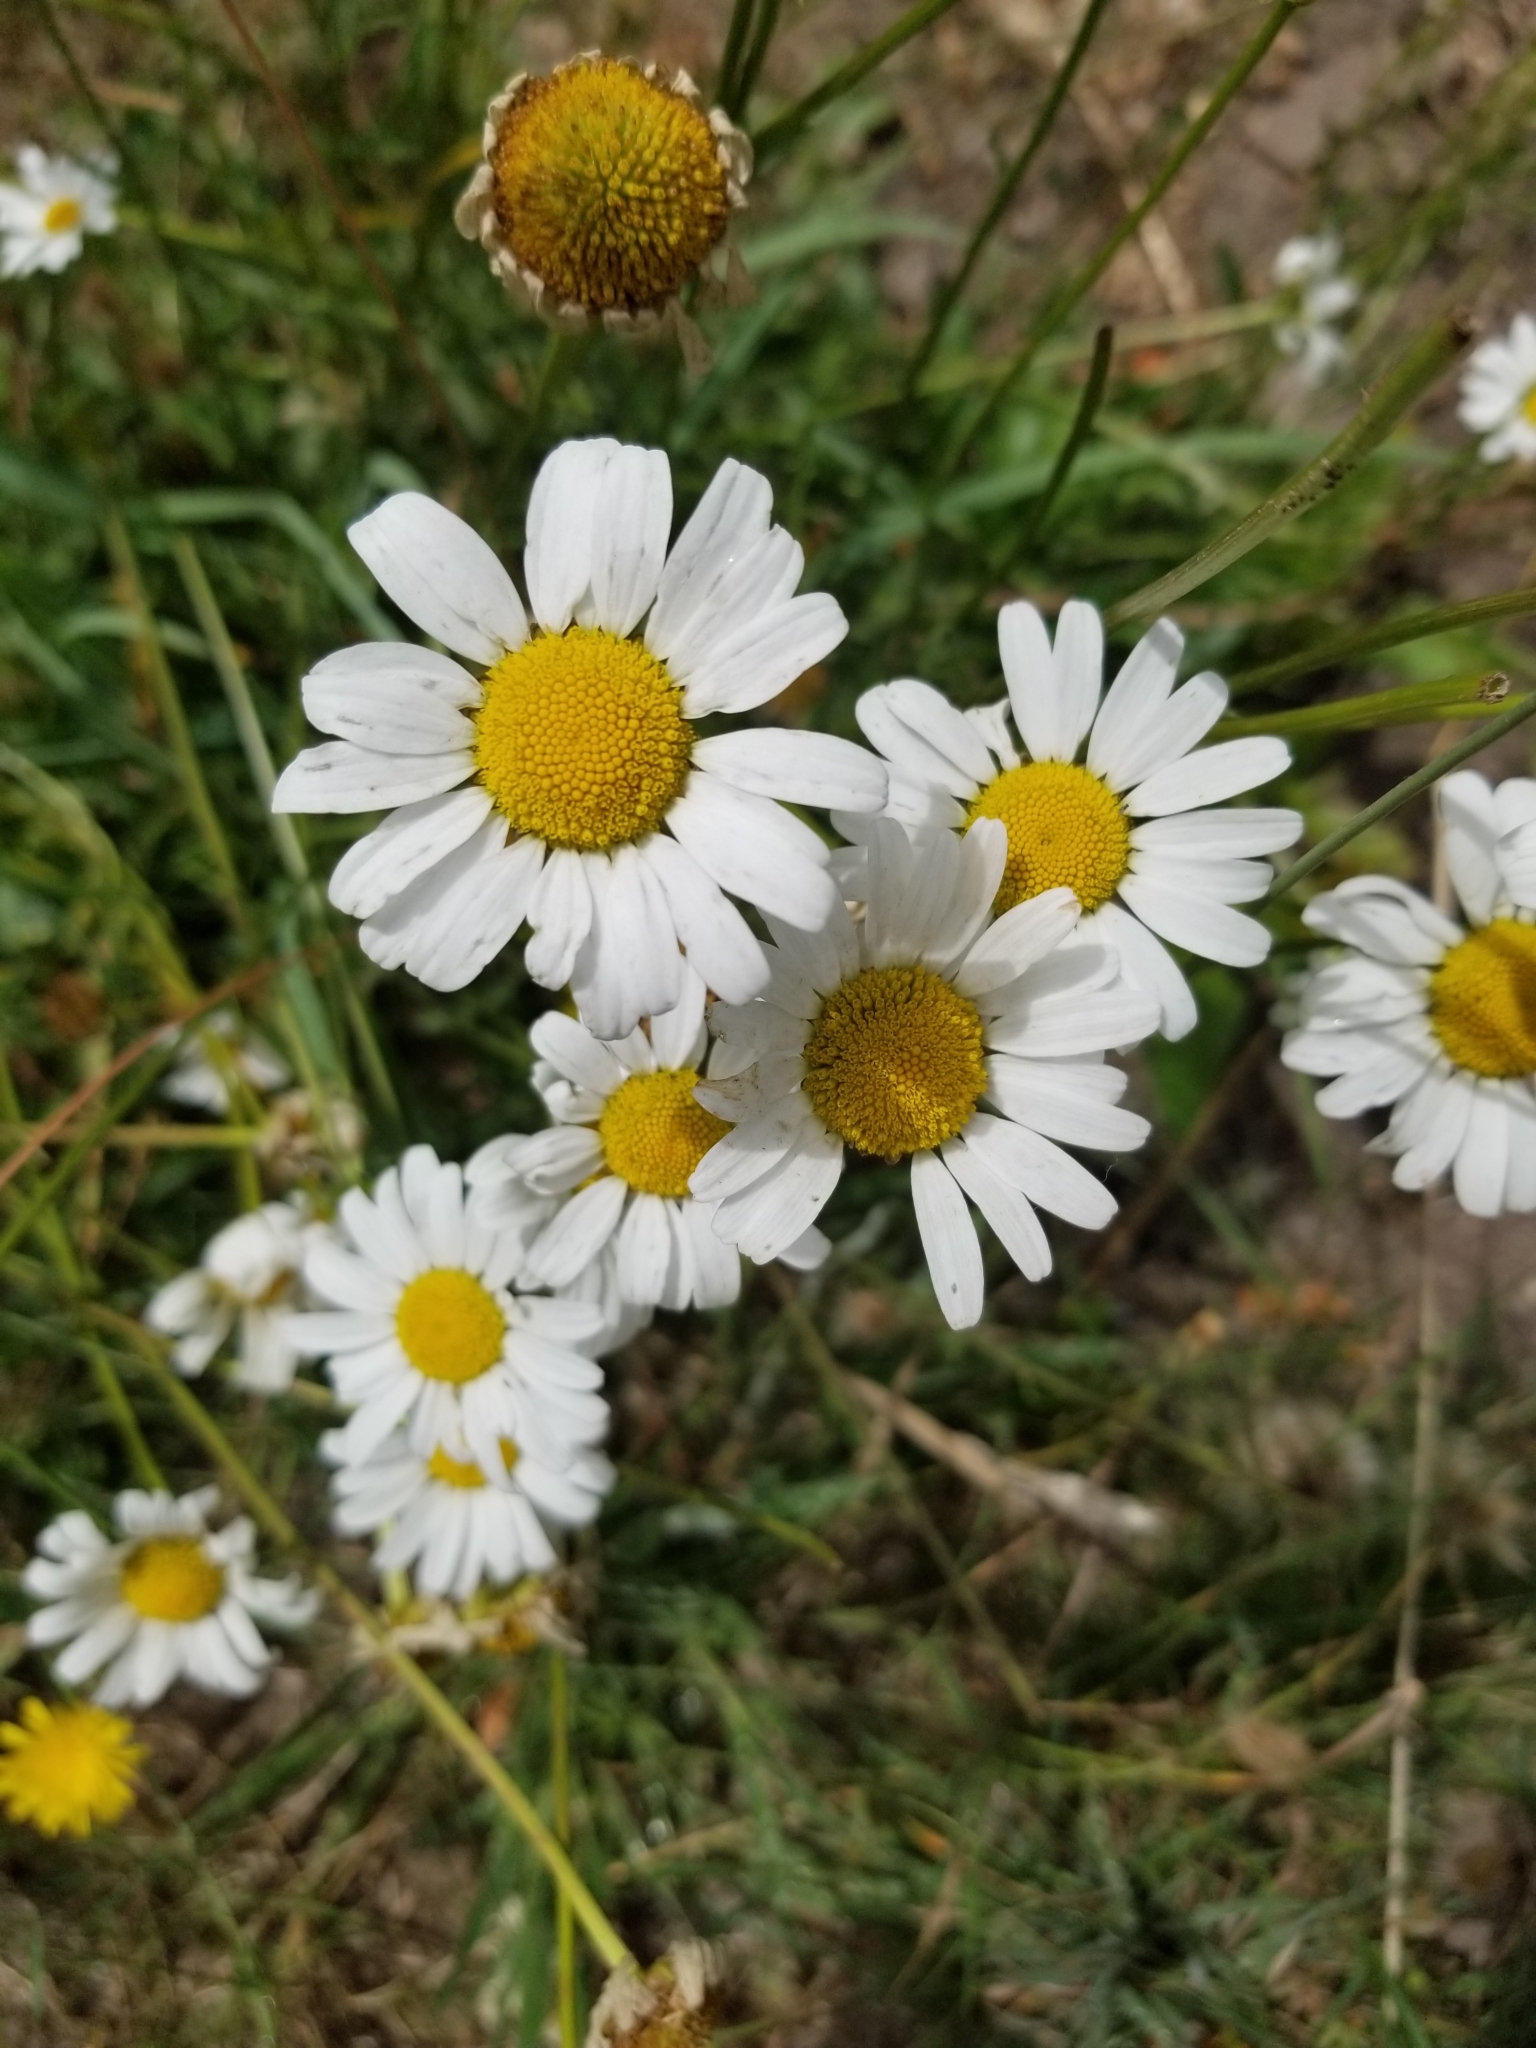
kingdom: Plantae
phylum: Tracheophyta
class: Magnoliopsida
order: Asterales
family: Asteraceae
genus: Leucanthemum
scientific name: Leucanthemum vulgare
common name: Oxeye daisy
